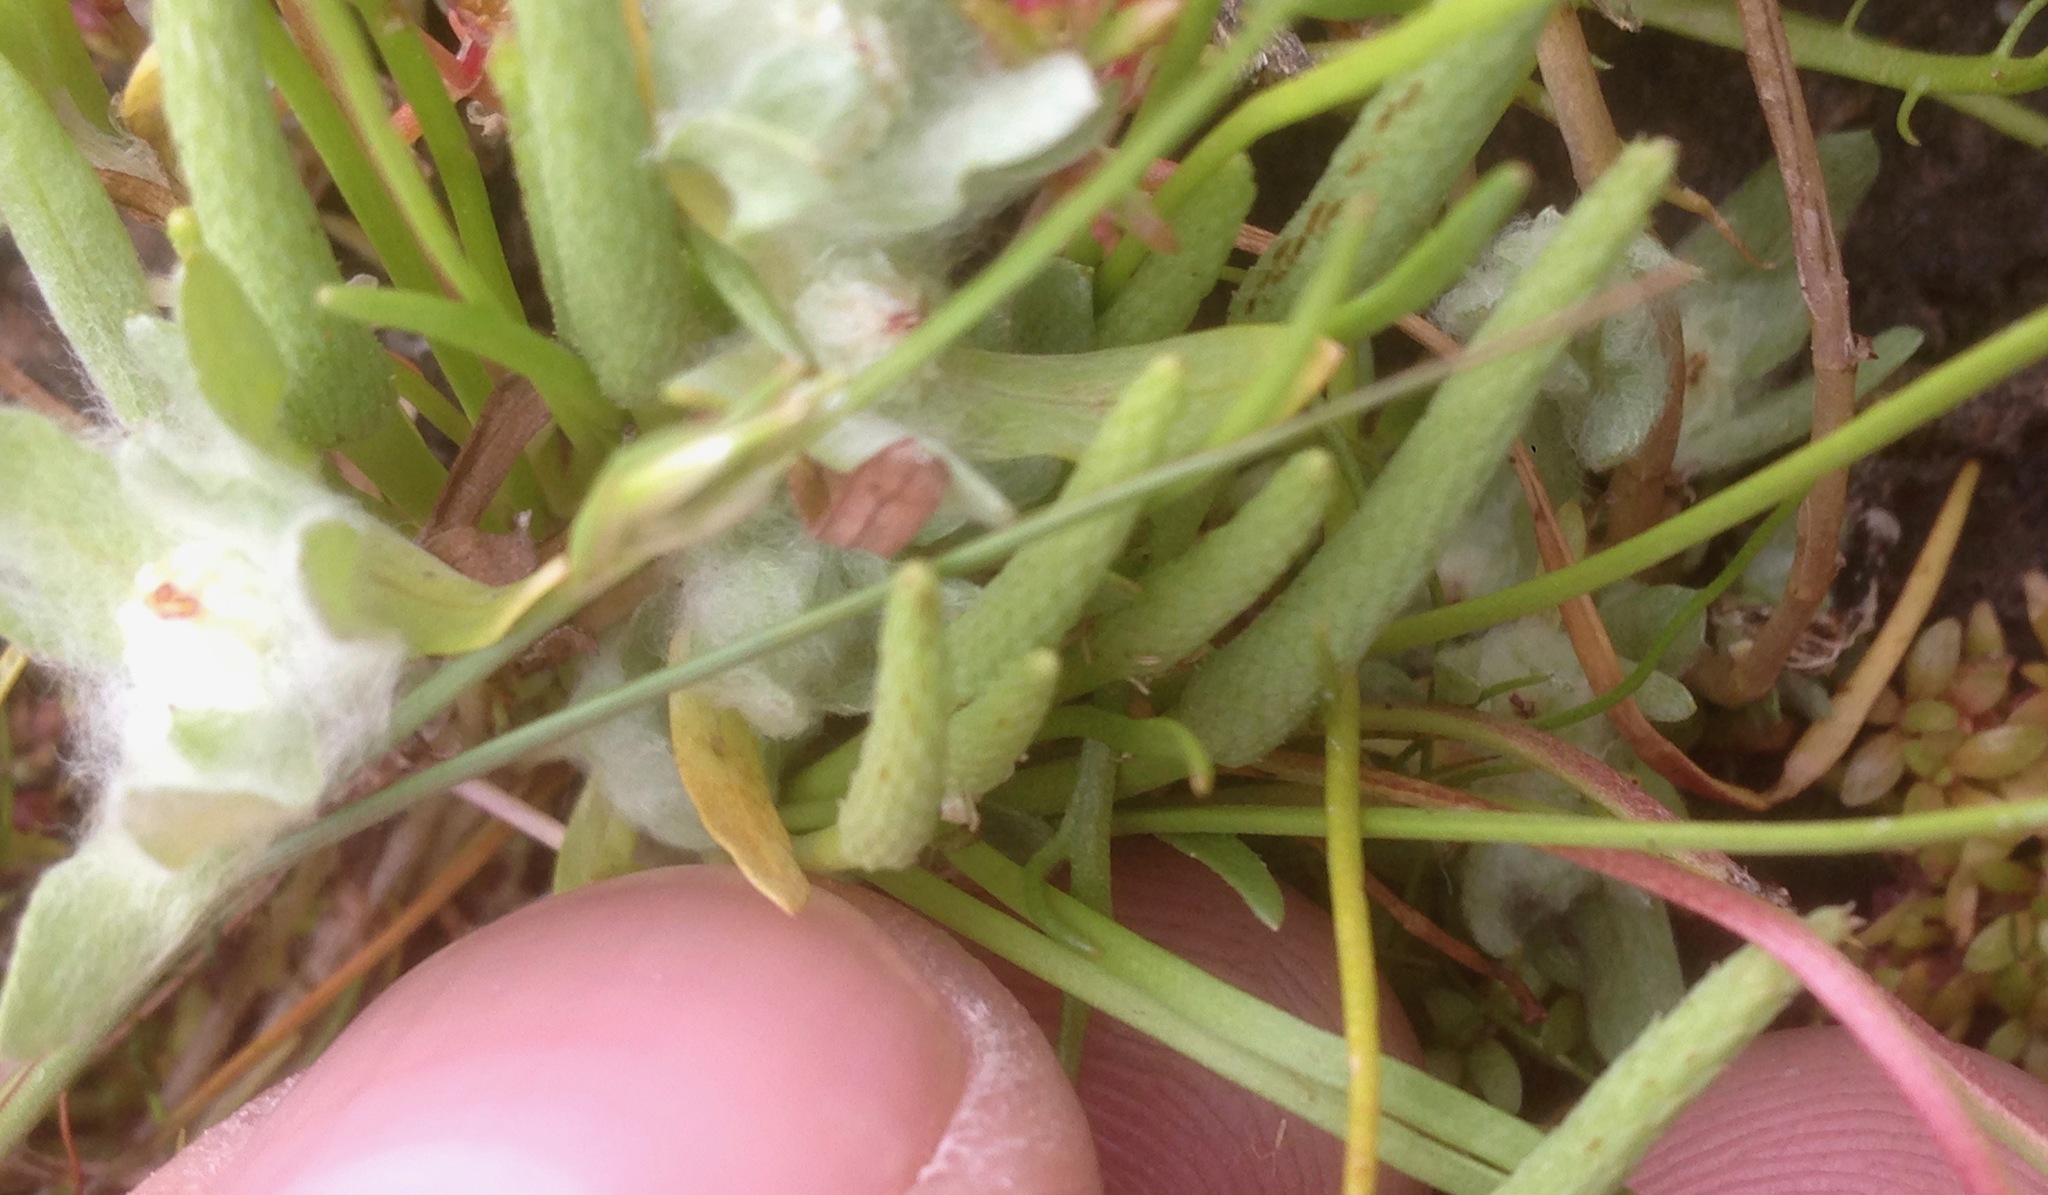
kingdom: Plantae
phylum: Tracheophyta
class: Magnoliopsida
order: Ranunculales
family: Ranunculaceae
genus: Myosurus
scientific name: Myosurus minimus
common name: Mousetail
